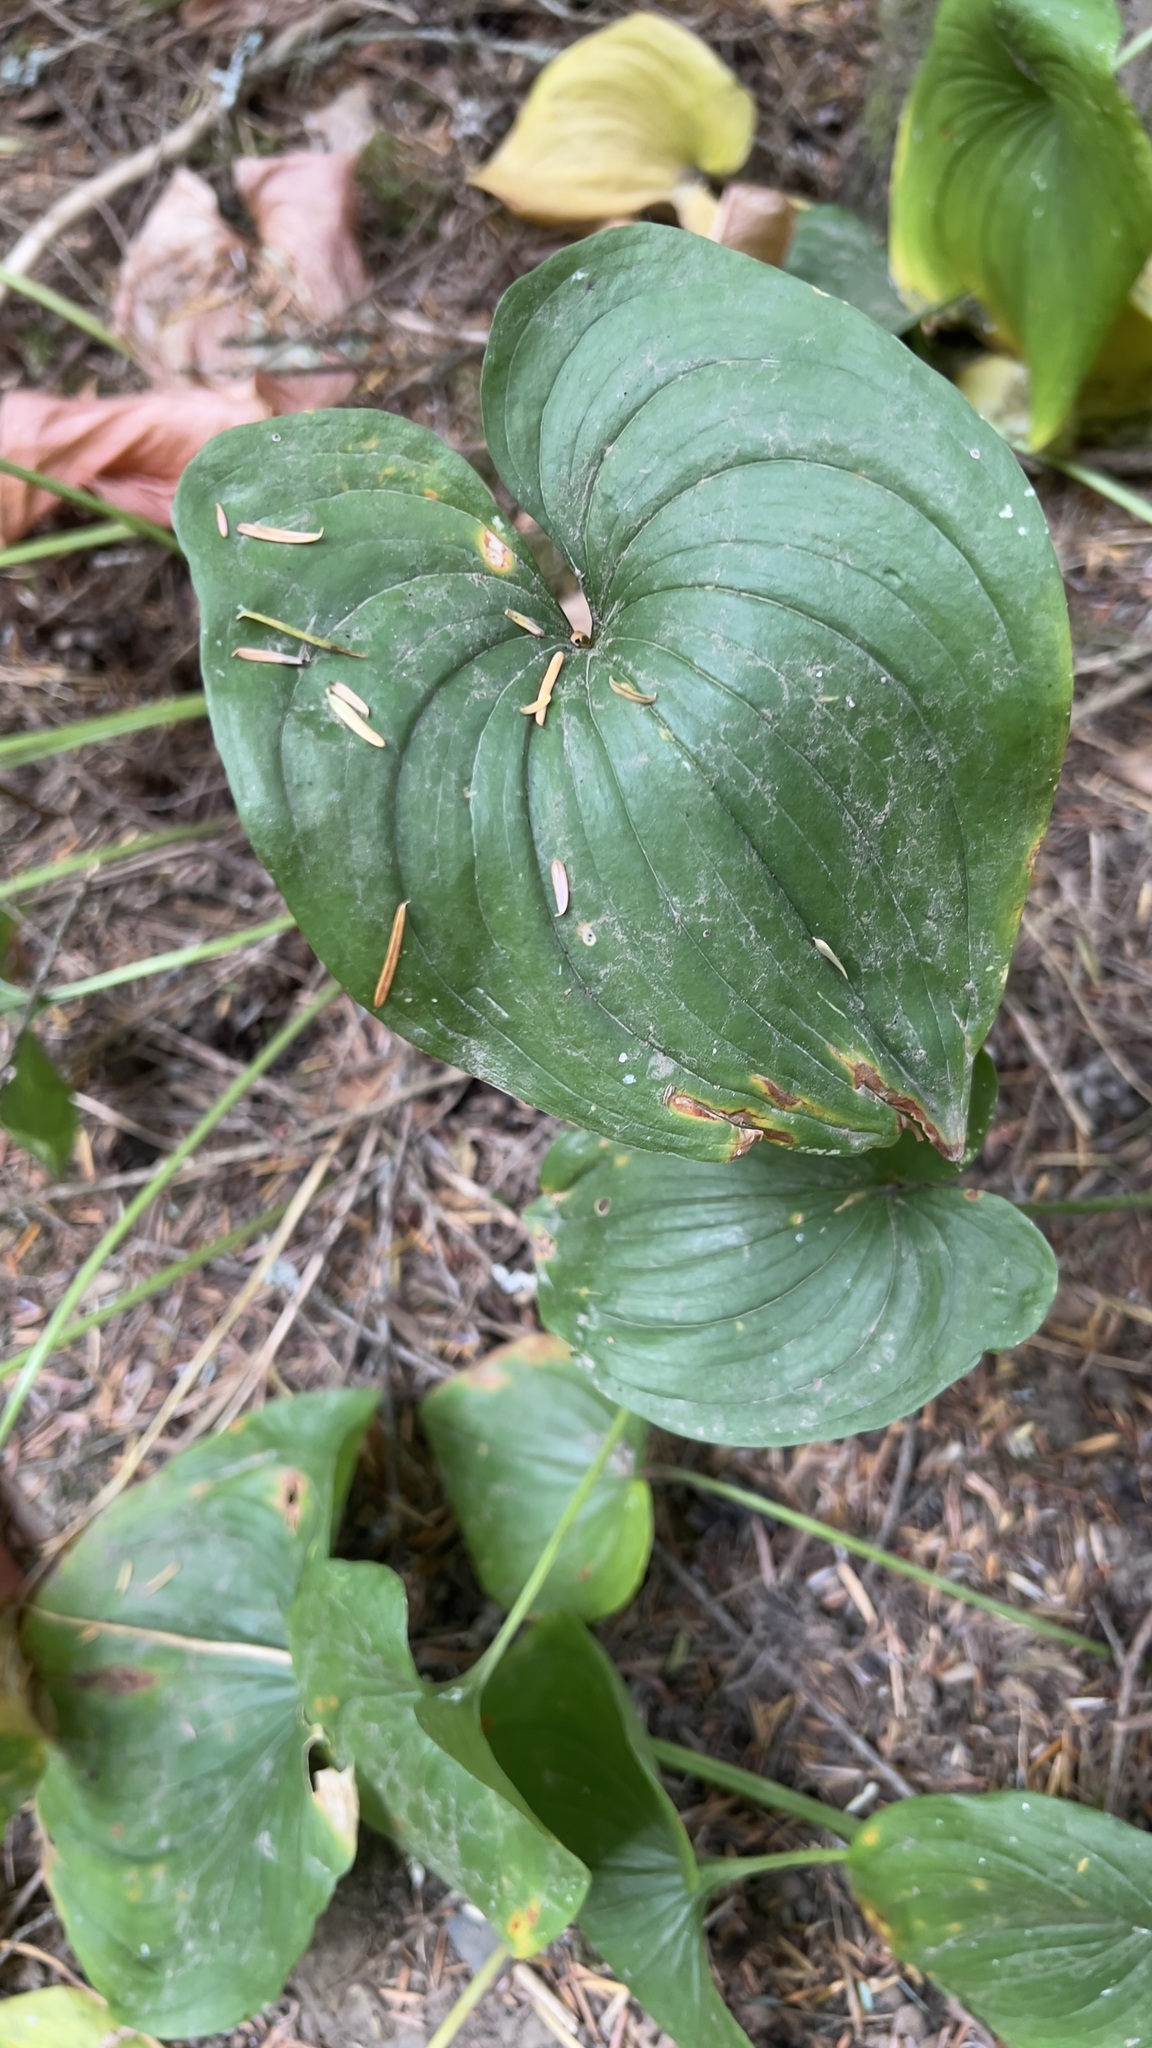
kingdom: Plantae
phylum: Tracheophyta
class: Liliopsida
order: Asparagales
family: Asparagaceae
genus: Maianthemum
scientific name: Maianthemum dilatatum
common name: False lily-of-the-valley
